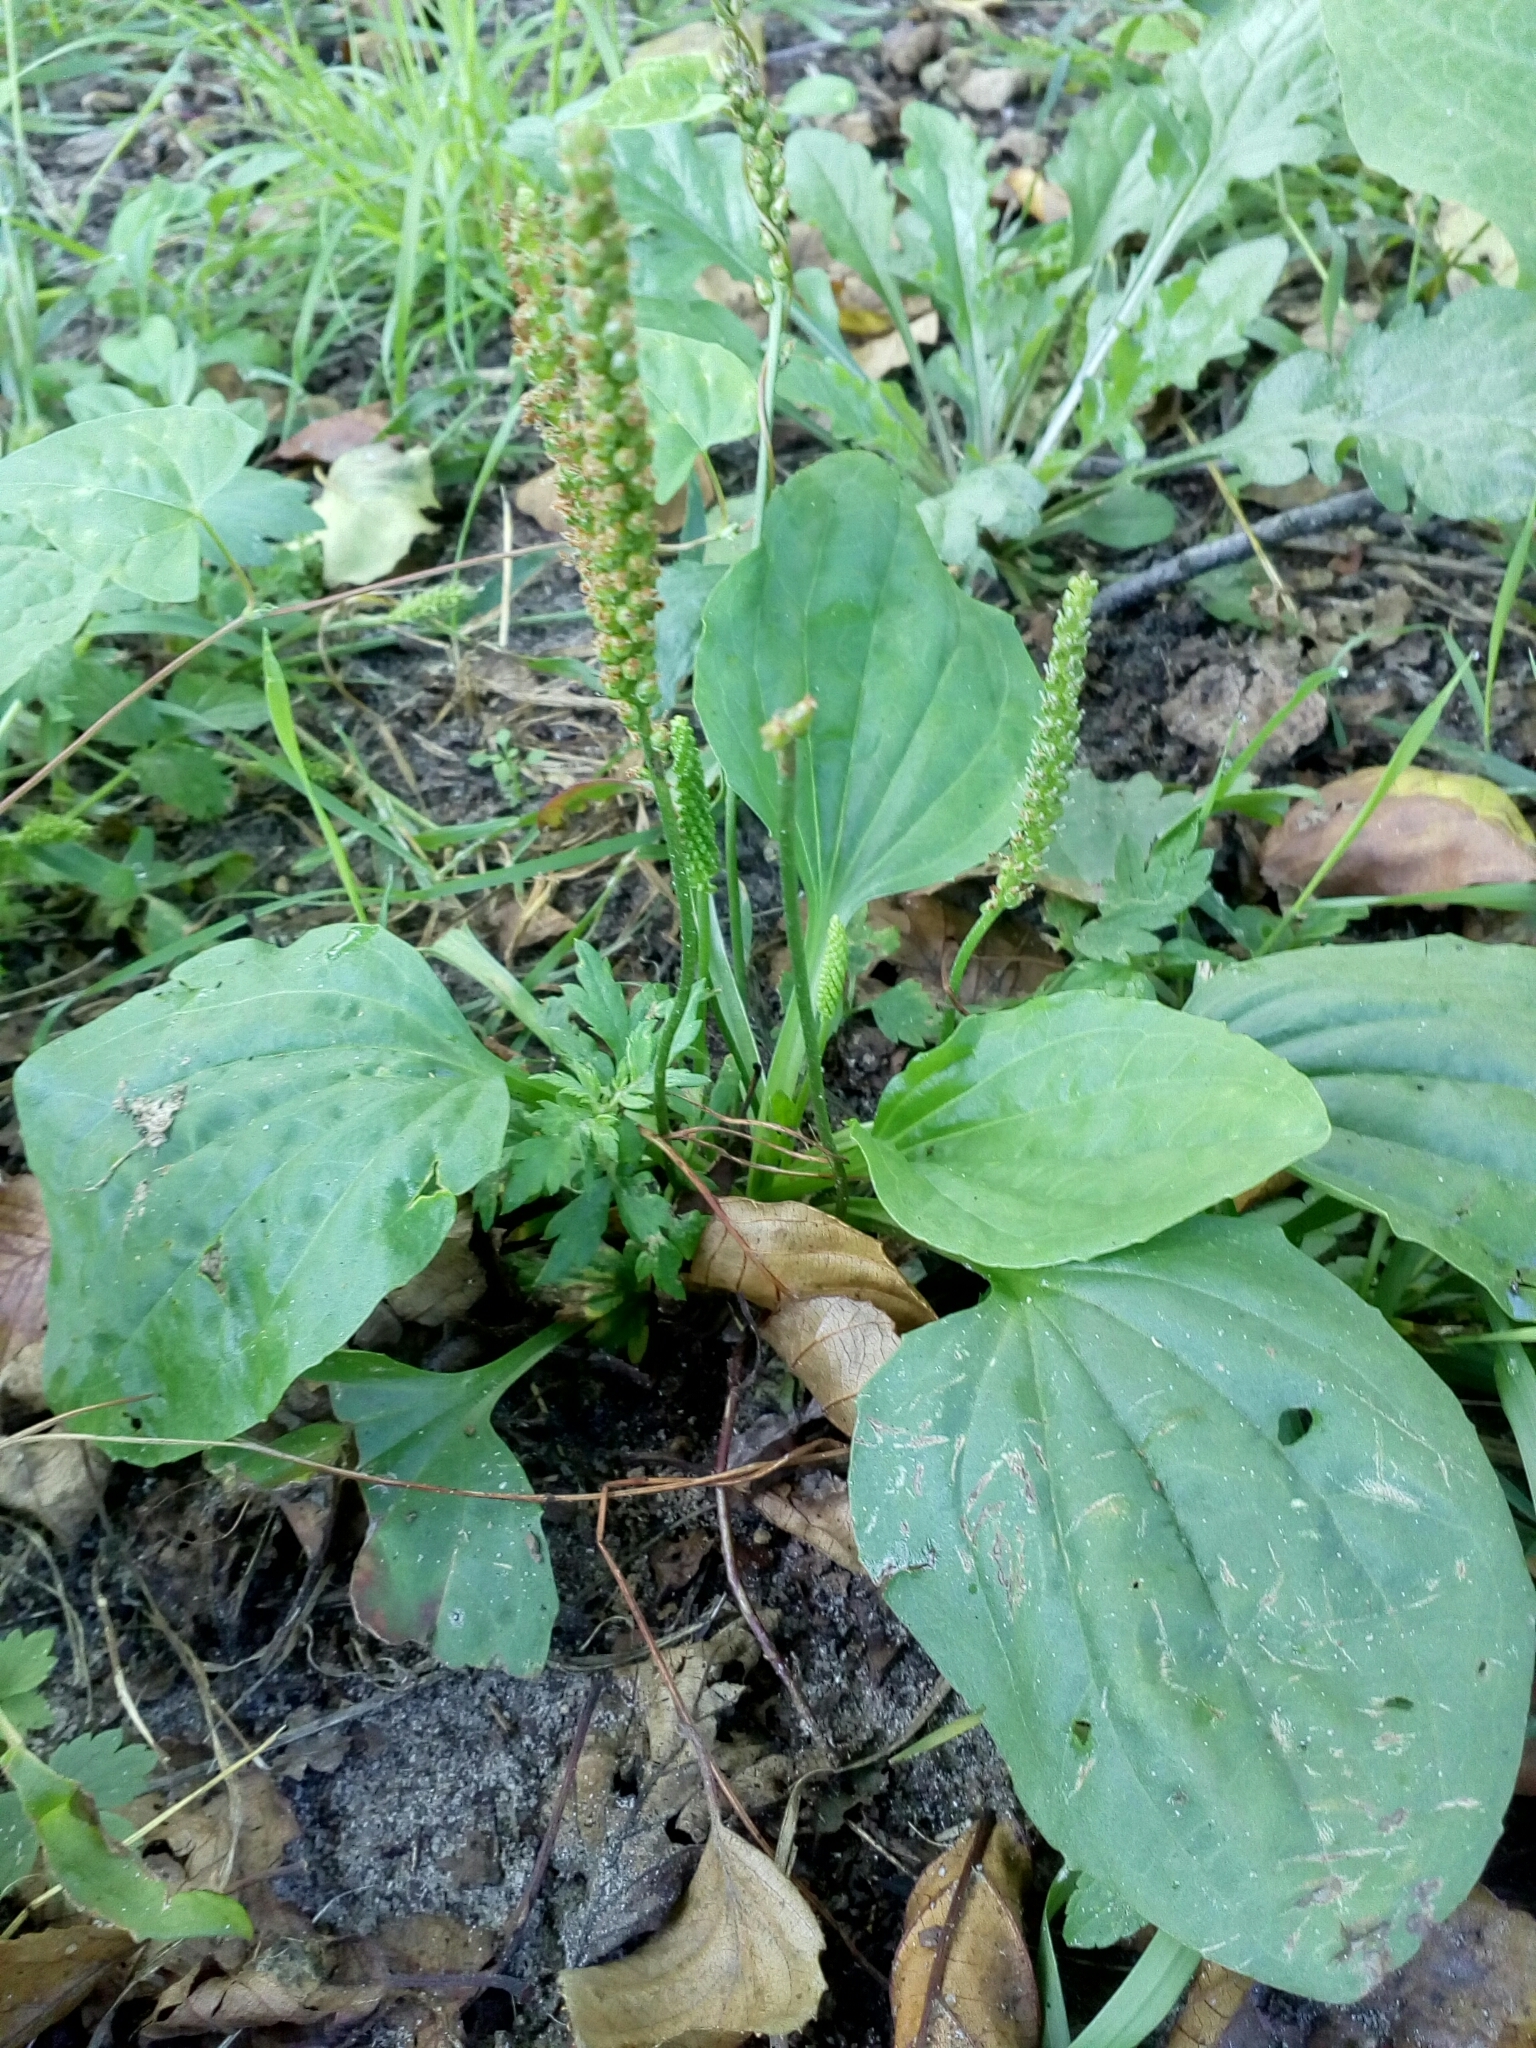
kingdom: Plantae
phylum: Tracheophyta
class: Magnoliopsida
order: Lamiales
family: Plantaginaceae
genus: Plantago
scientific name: Plantago major
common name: Common plantain
